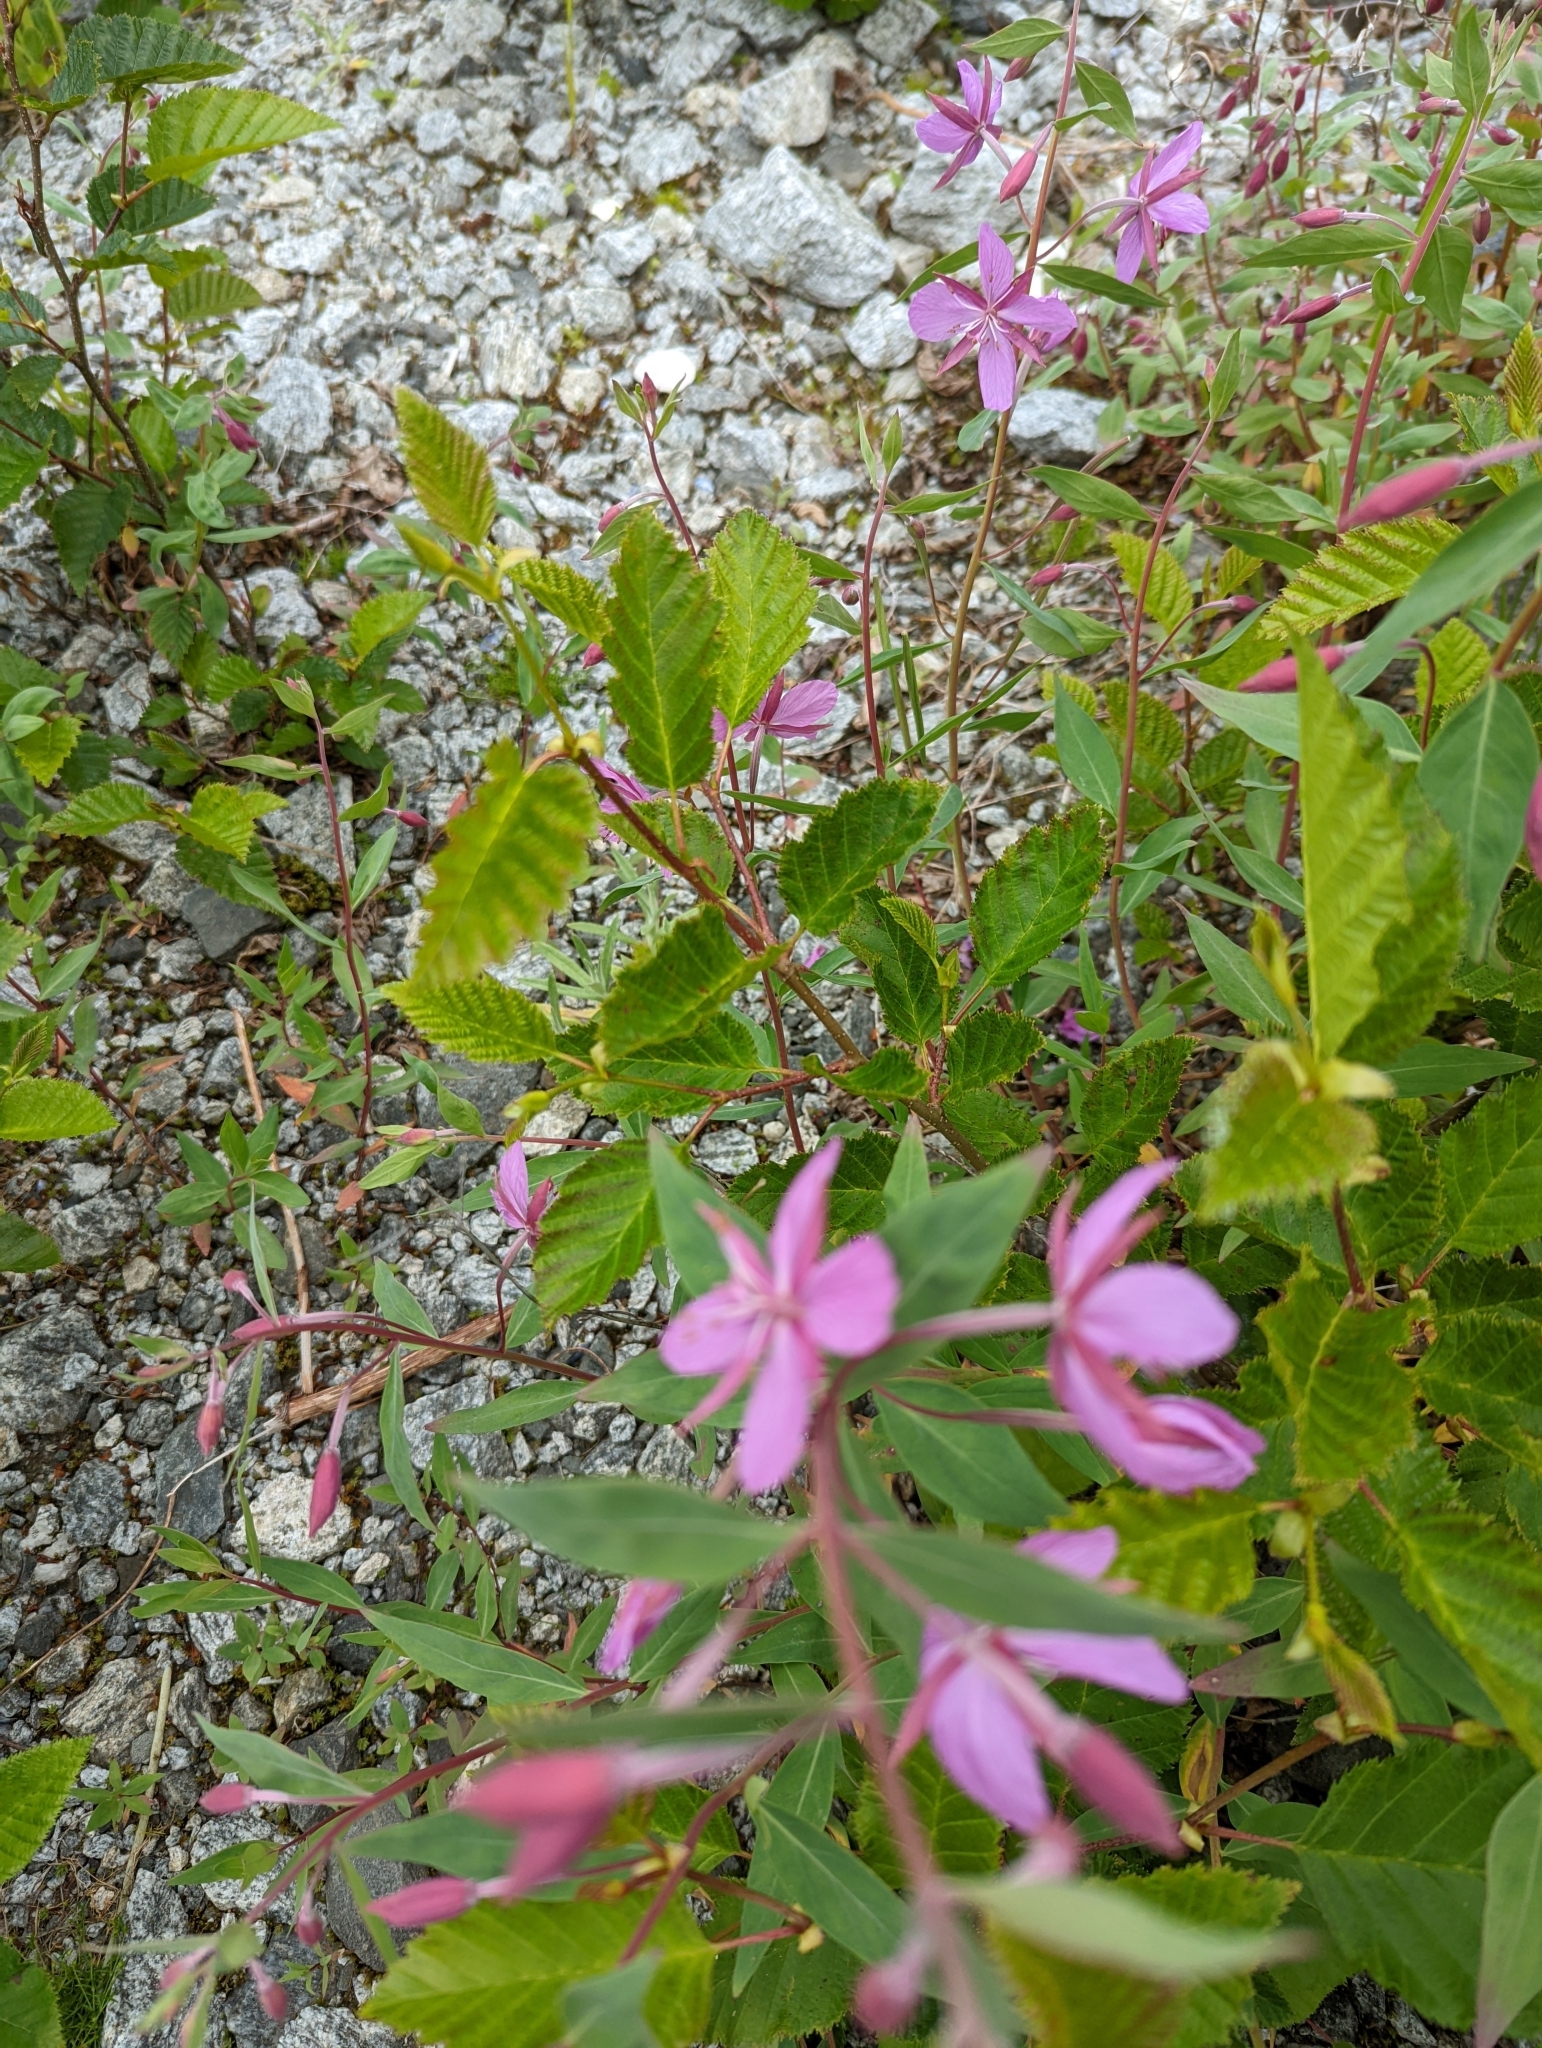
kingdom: Plantae
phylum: Tracheophyta
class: Magnoliopsida
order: Myrtales
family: Onagraceae
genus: Chamaenerion
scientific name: Chamaenerion latifolium
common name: Dwarf fireweed
